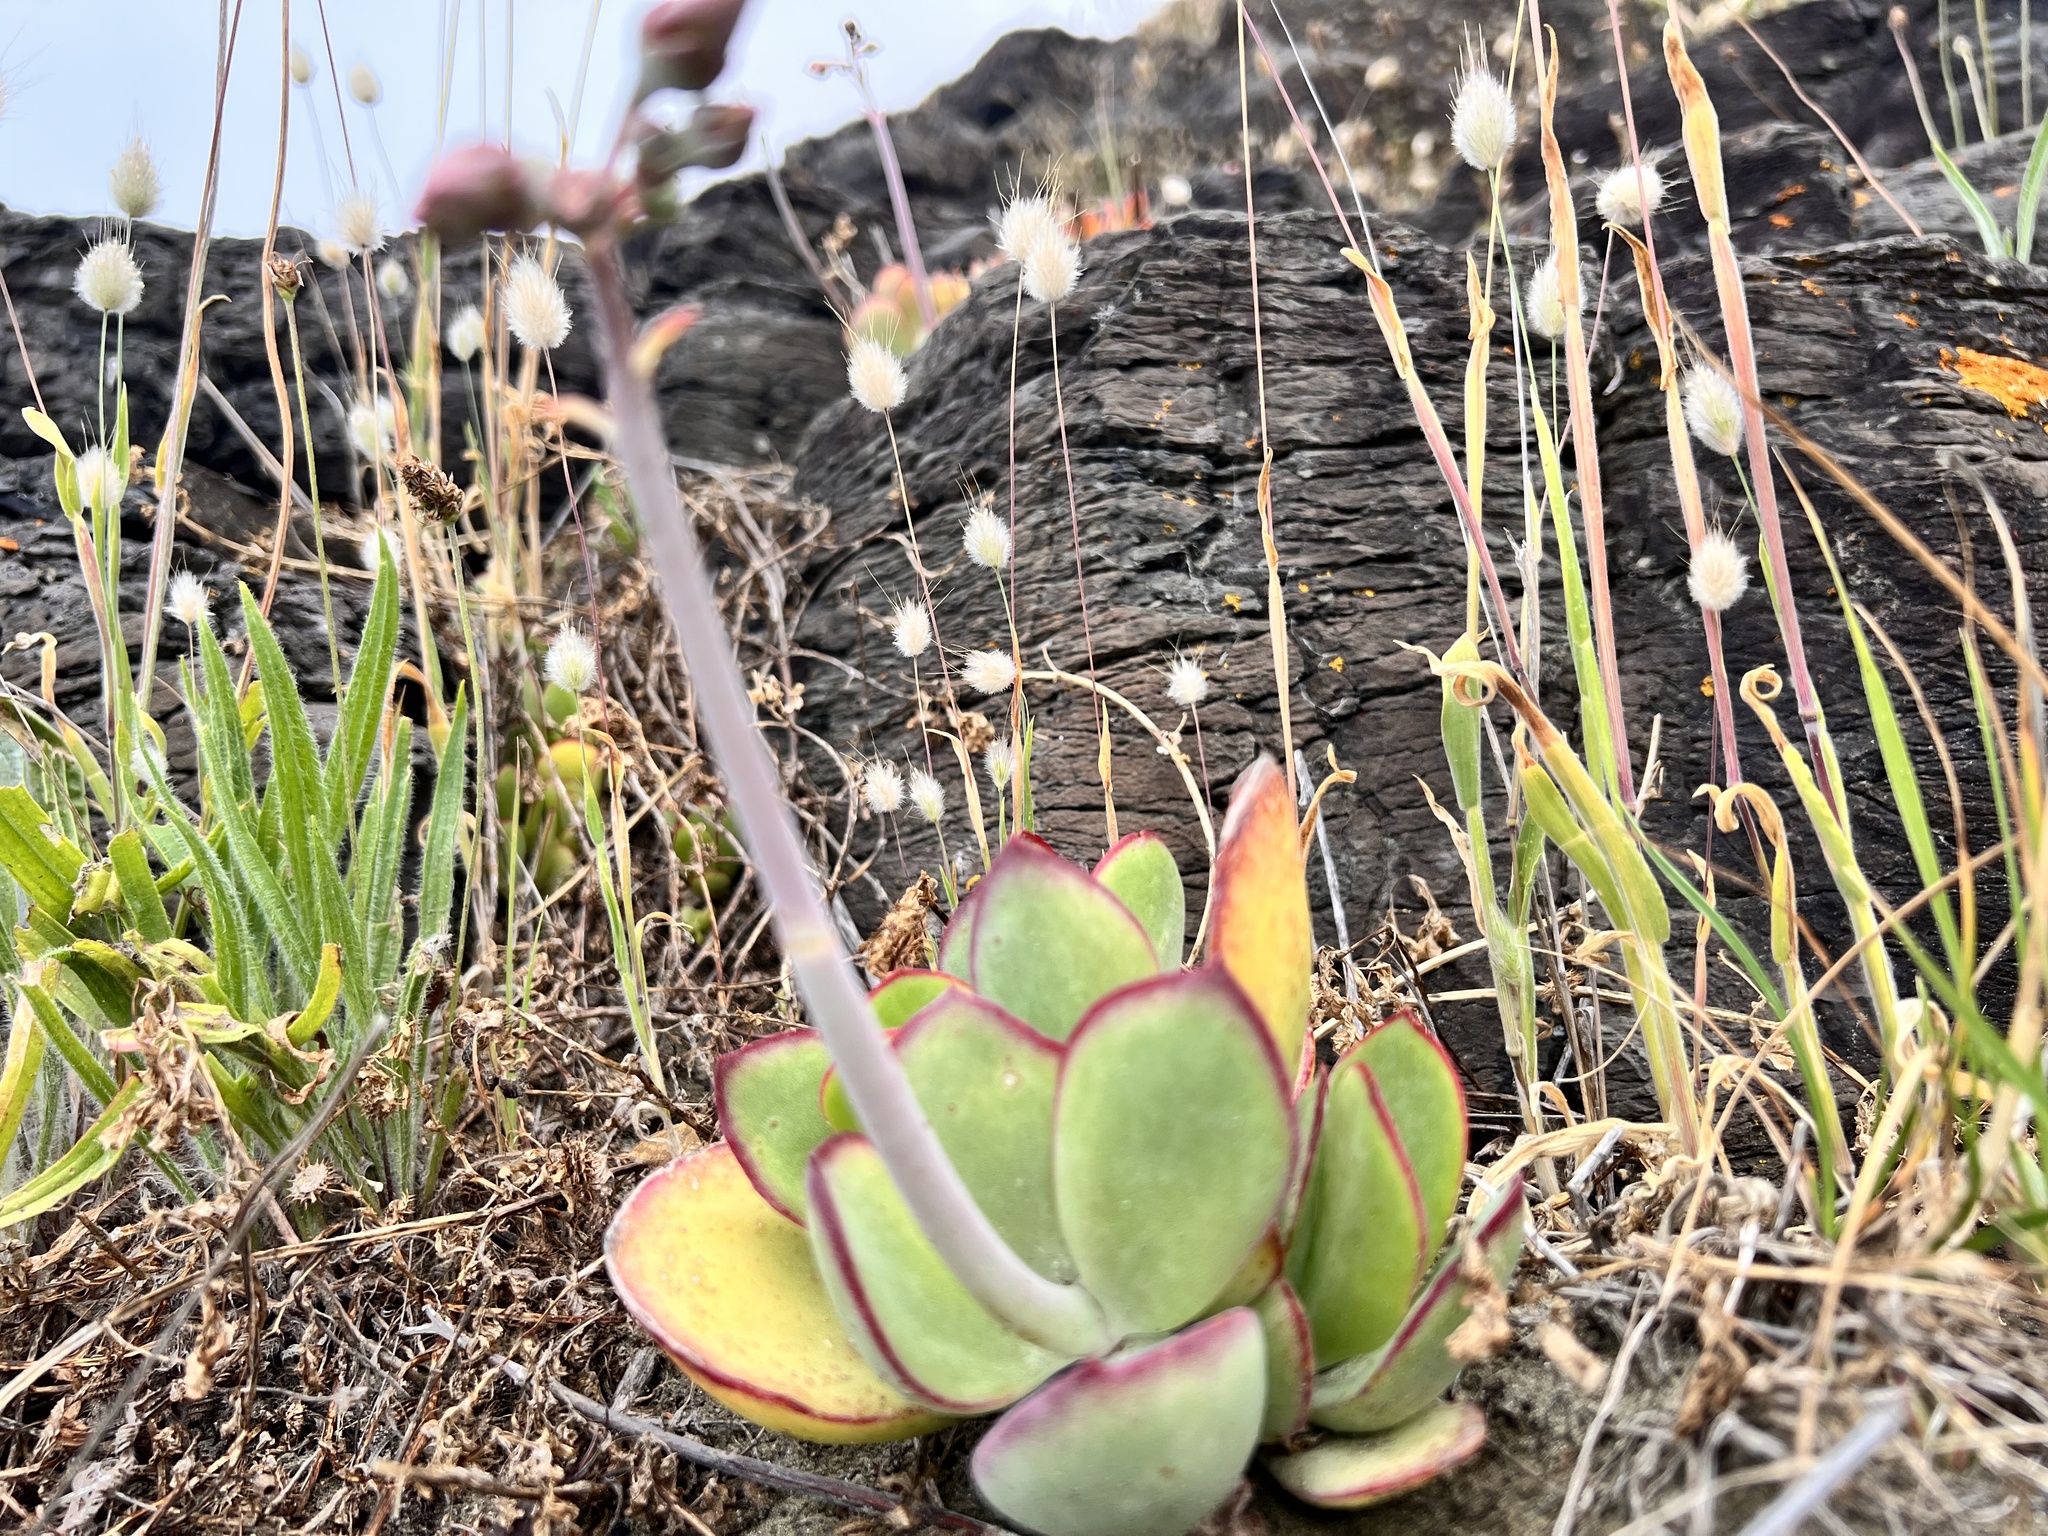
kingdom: Plantae
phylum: Tracheophyta
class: Magnoliopsida
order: Saxifragales
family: Crassulaceae
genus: Cotyledon
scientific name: Cotyledon orbiculata
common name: Pig's ear
